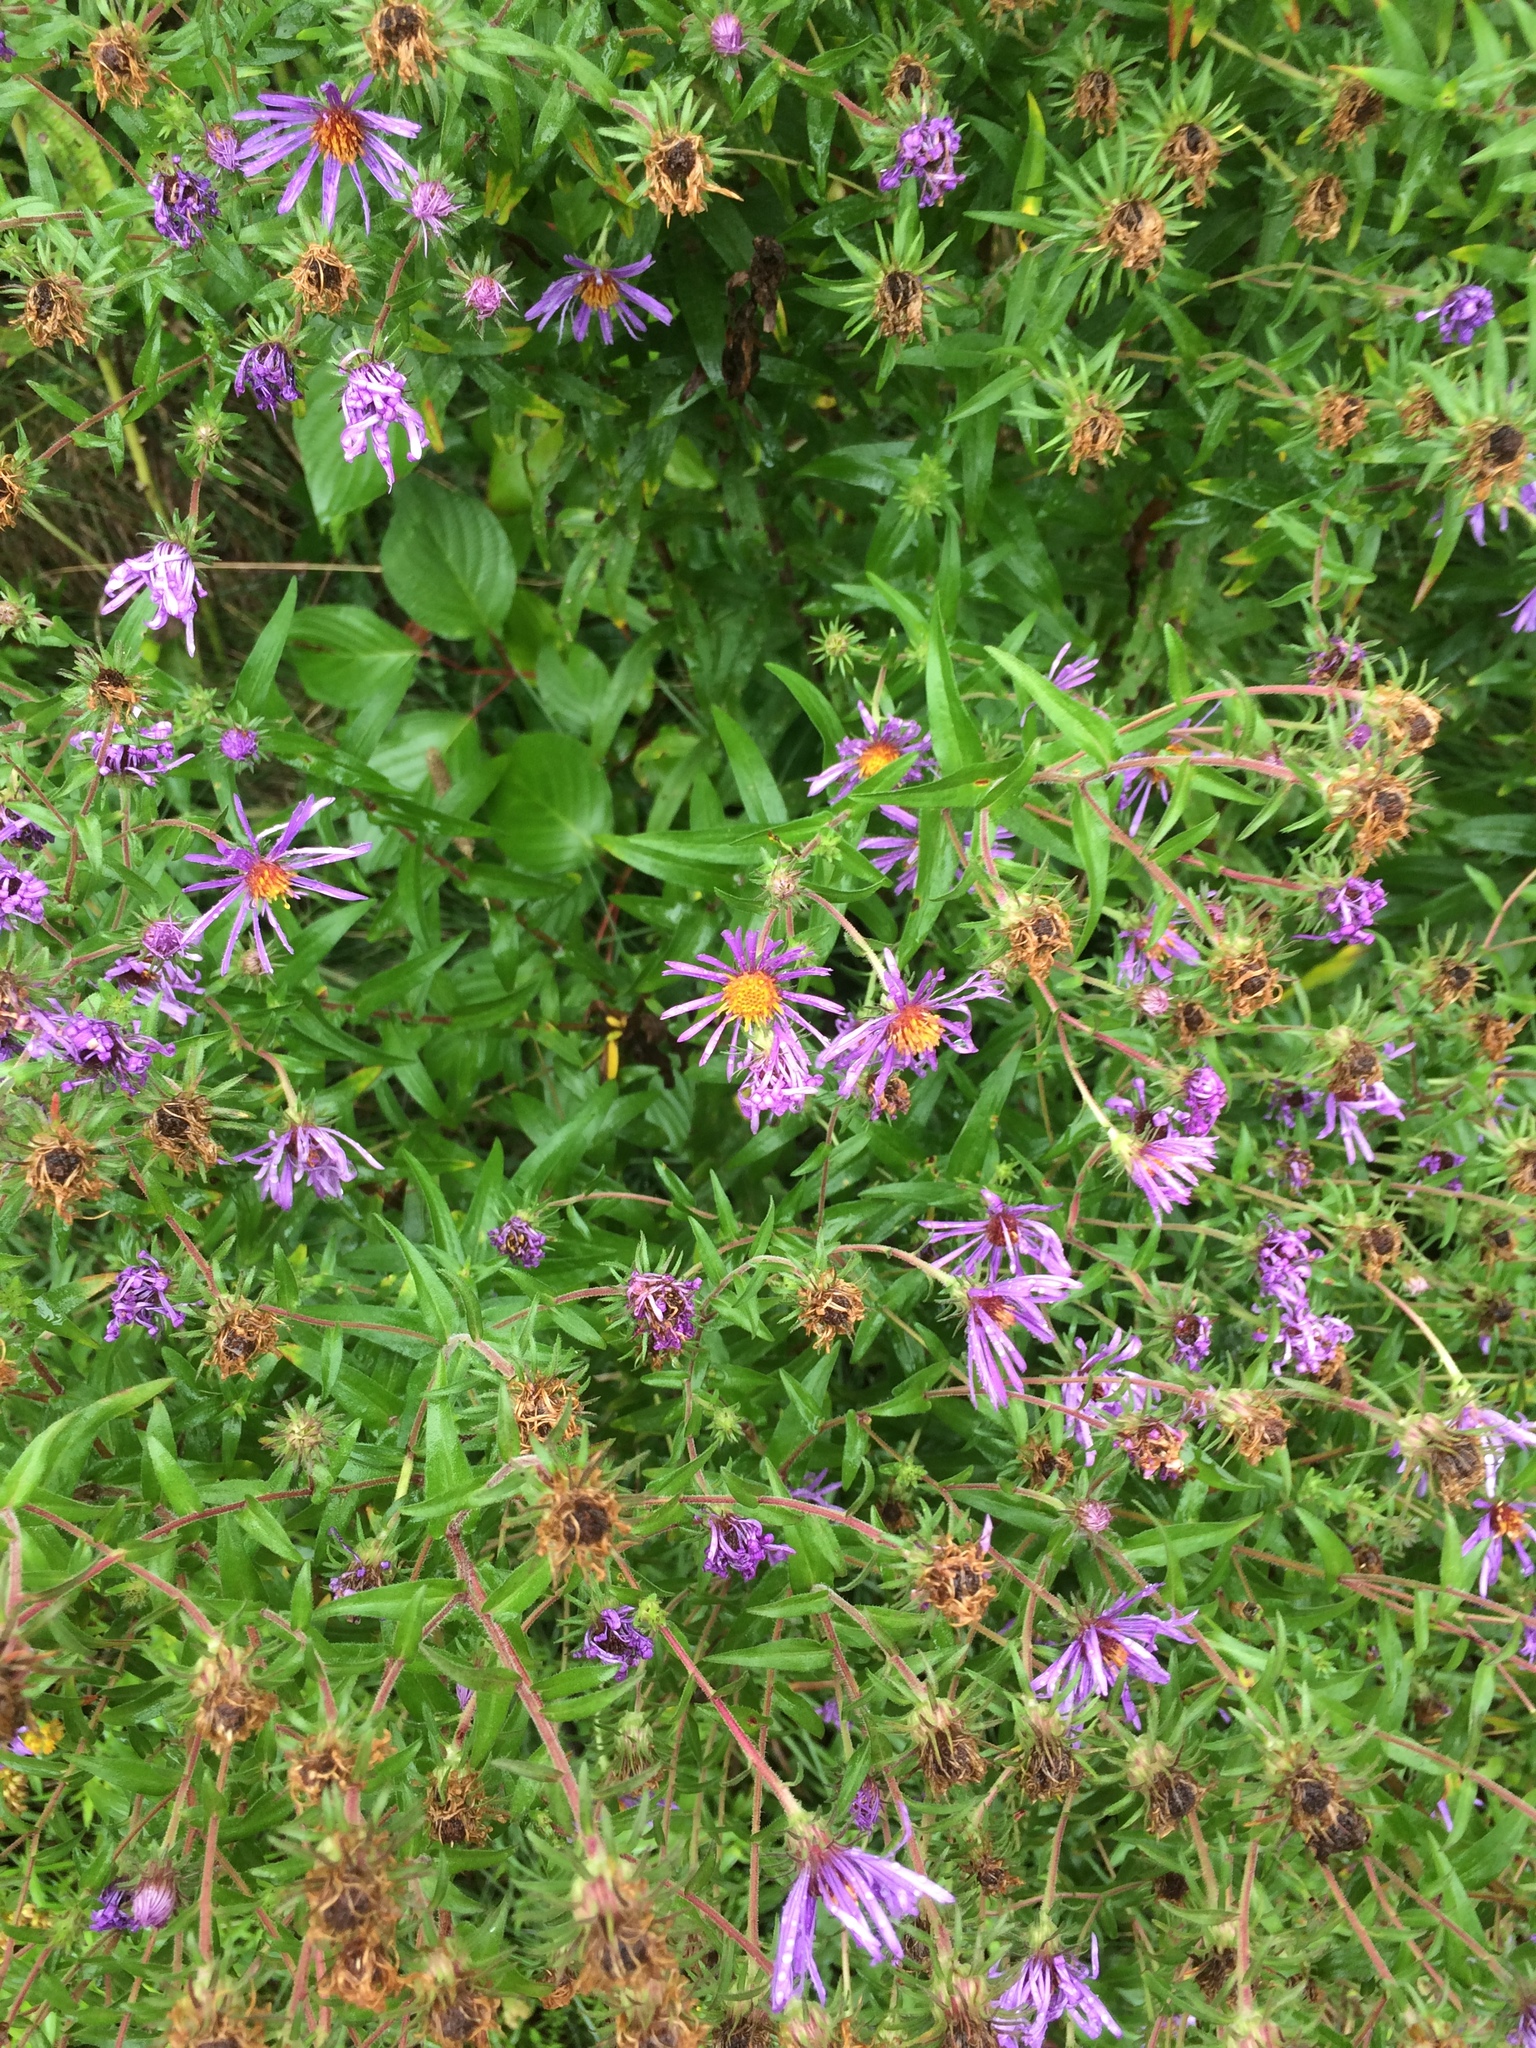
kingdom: Plantae
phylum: Tracheophyta
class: Magnoliopsida
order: Asterales
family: Asteraceae
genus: Symphyotrichum
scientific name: Symphyotrichum novae-angliae
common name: Michaelmas daisy
